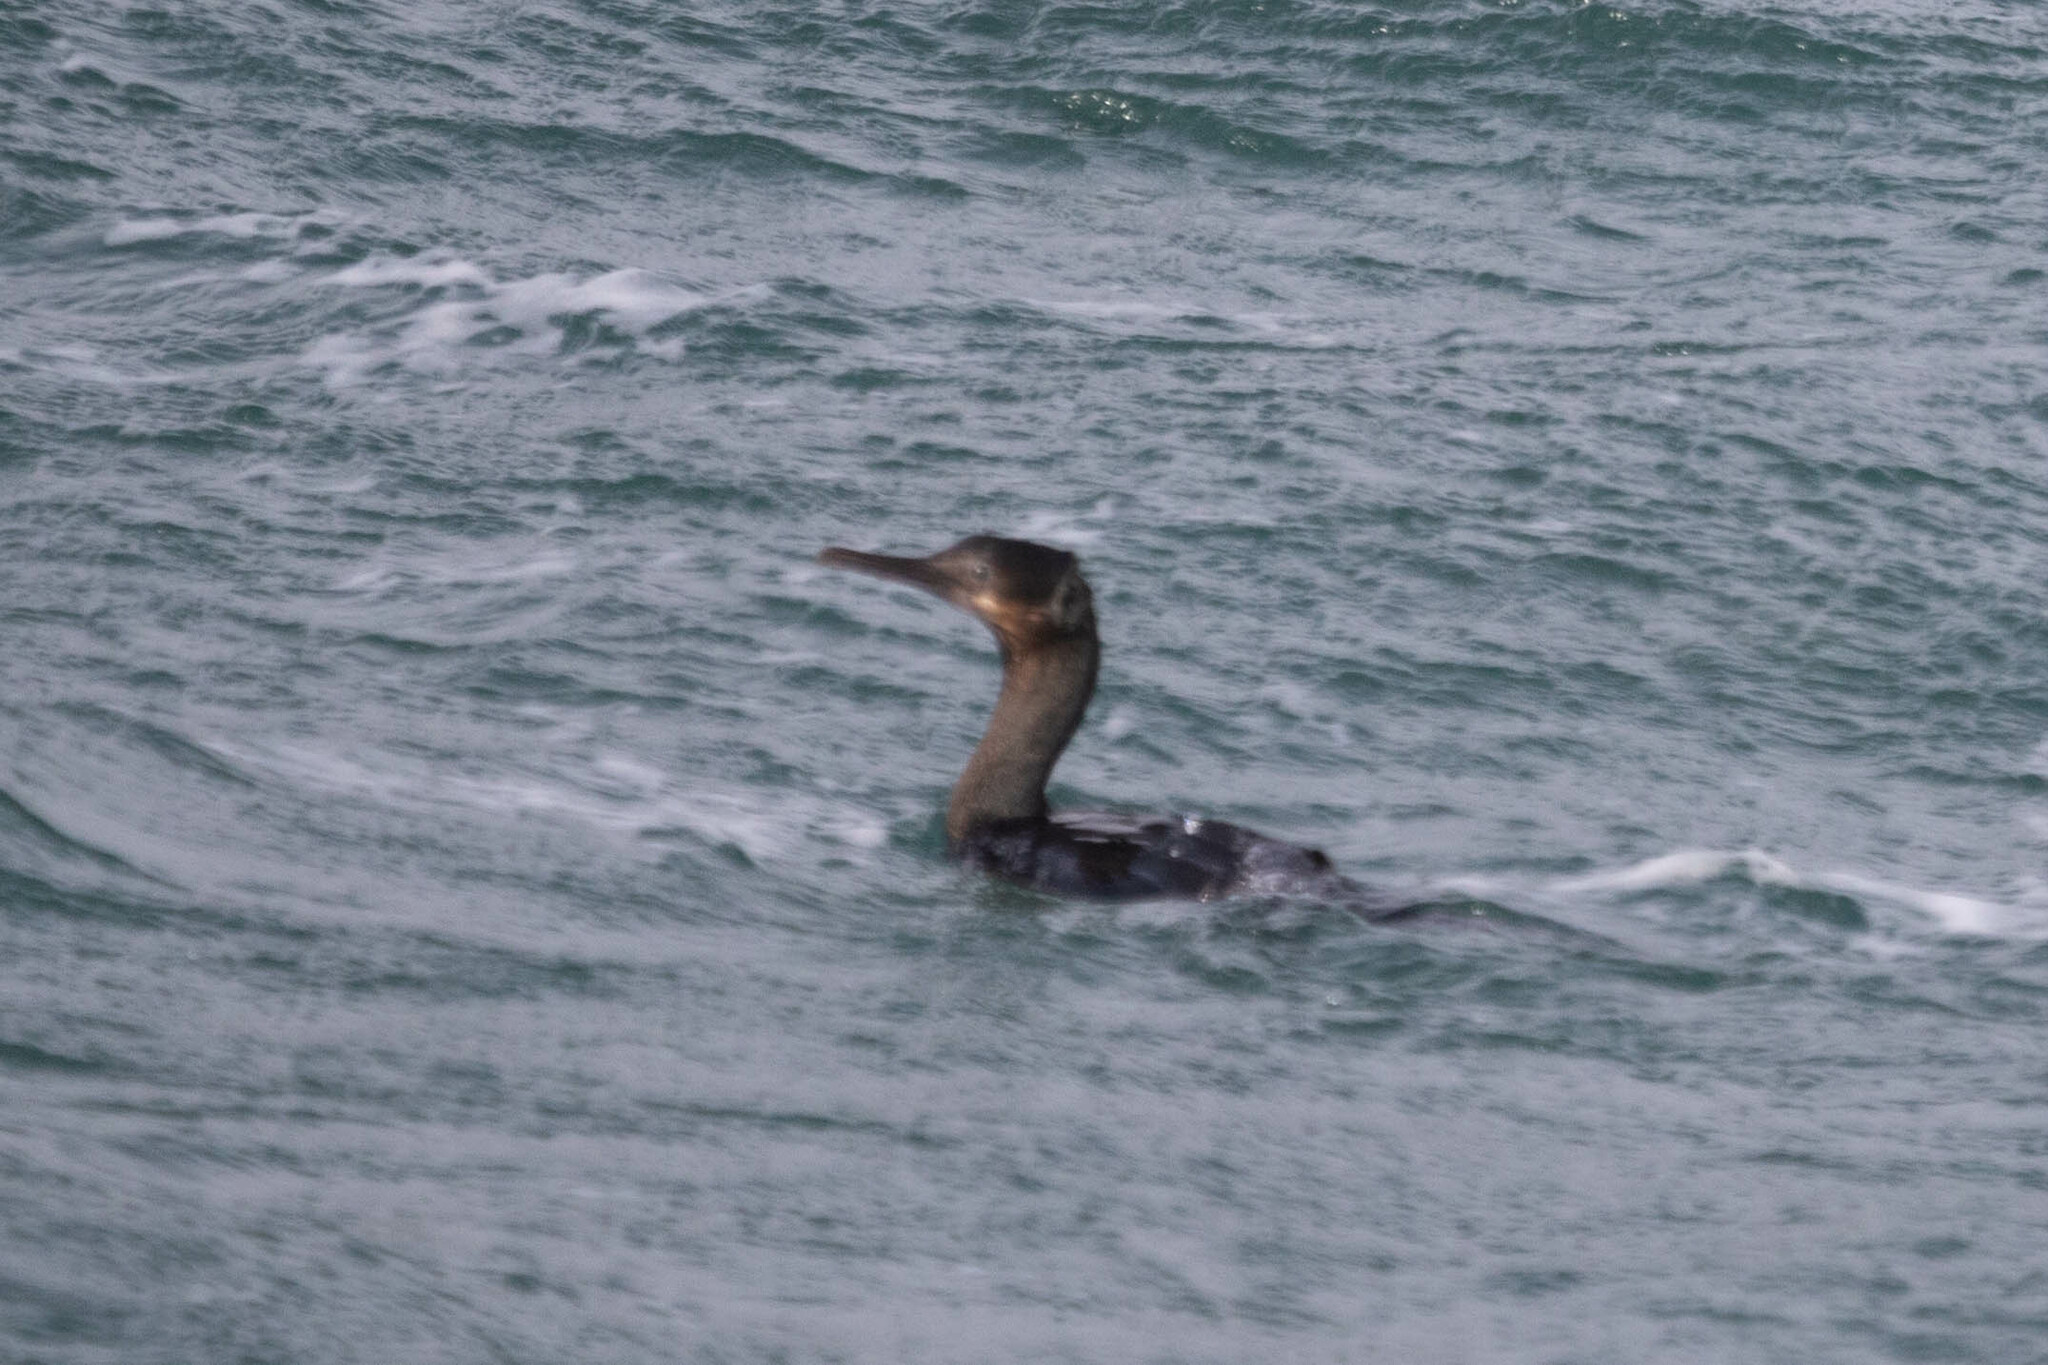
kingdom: Animalia
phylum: Chordata
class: Aves
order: Suliformes
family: Phalacrocoracidae
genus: Urile
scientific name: Urile penicillatus
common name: Brandt's cormorant
